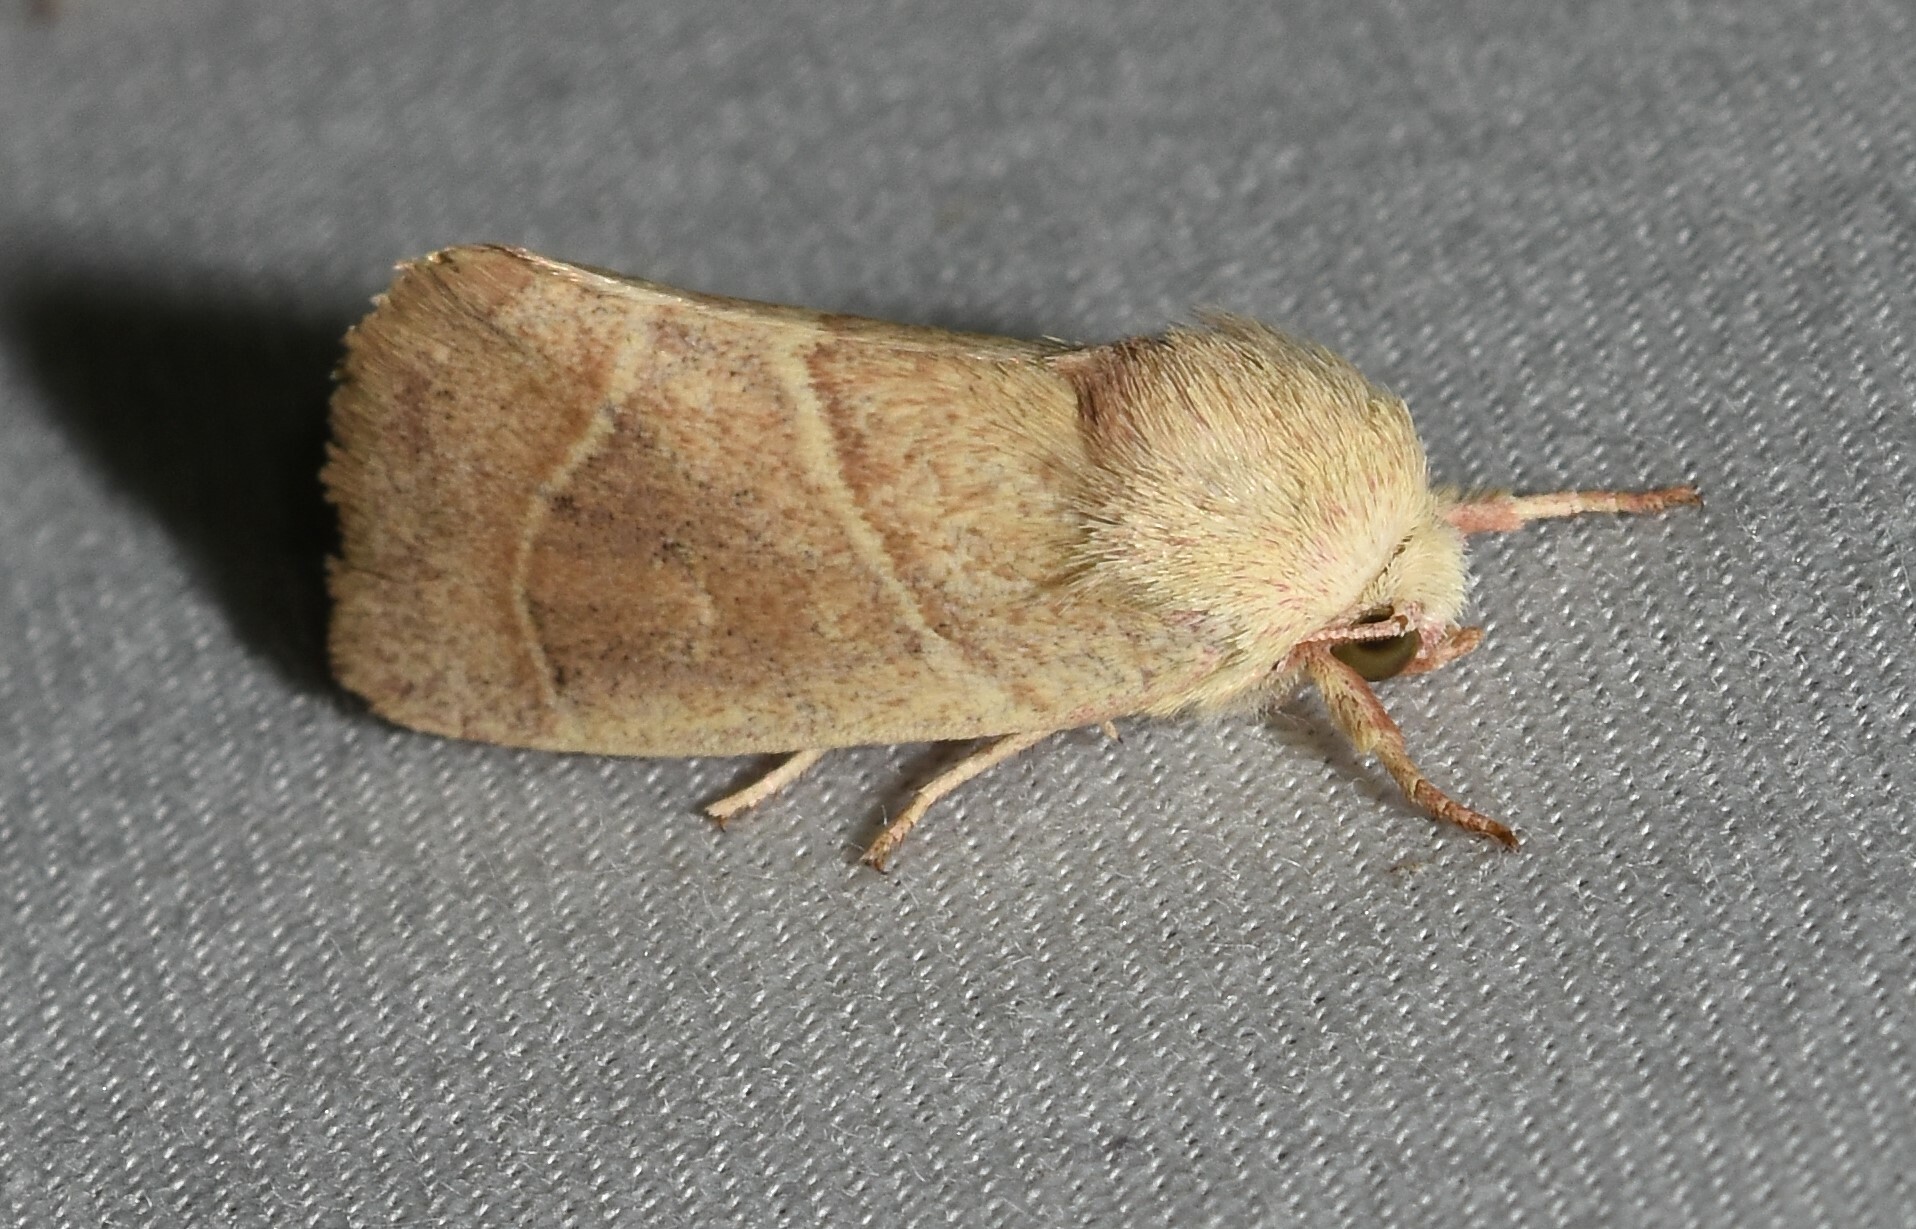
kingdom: Animalia
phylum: Arthropoda
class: Insecta
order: Lepidoptera
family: Noctuidae
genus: Cosmia
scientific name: Cosmia calami
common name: American dun-bar moth
